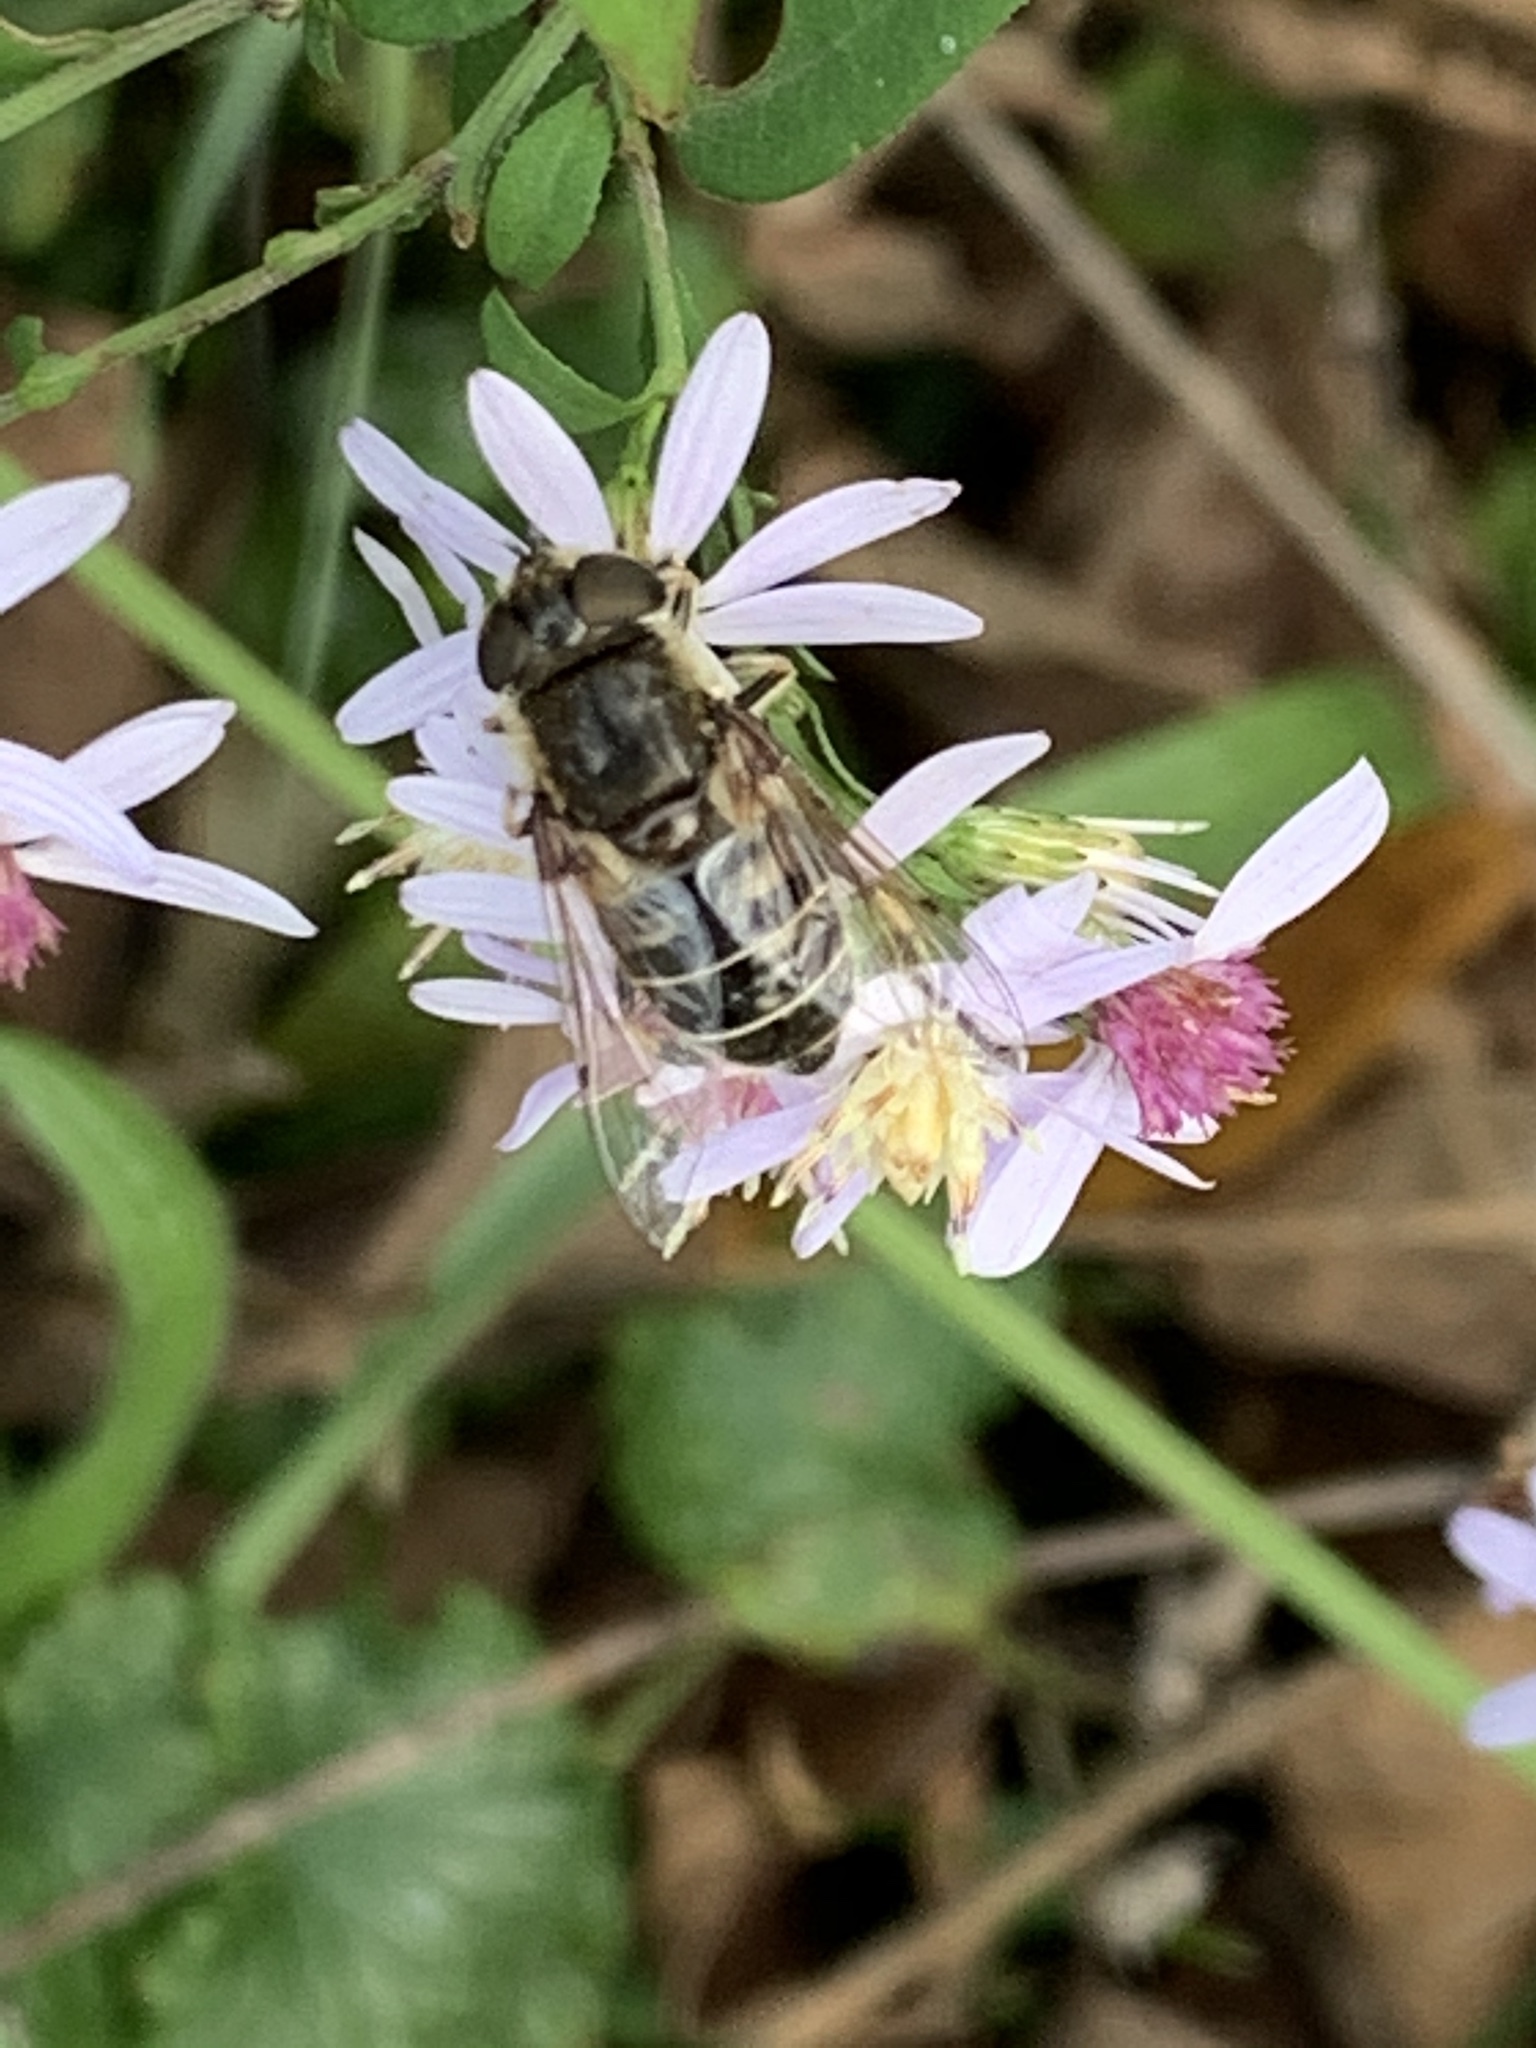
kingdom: Animalia
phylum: Arthropoda
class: Insecta
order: Diptera
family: Syrphidae
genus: Eristalis
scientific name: Eristalis dimidiata
